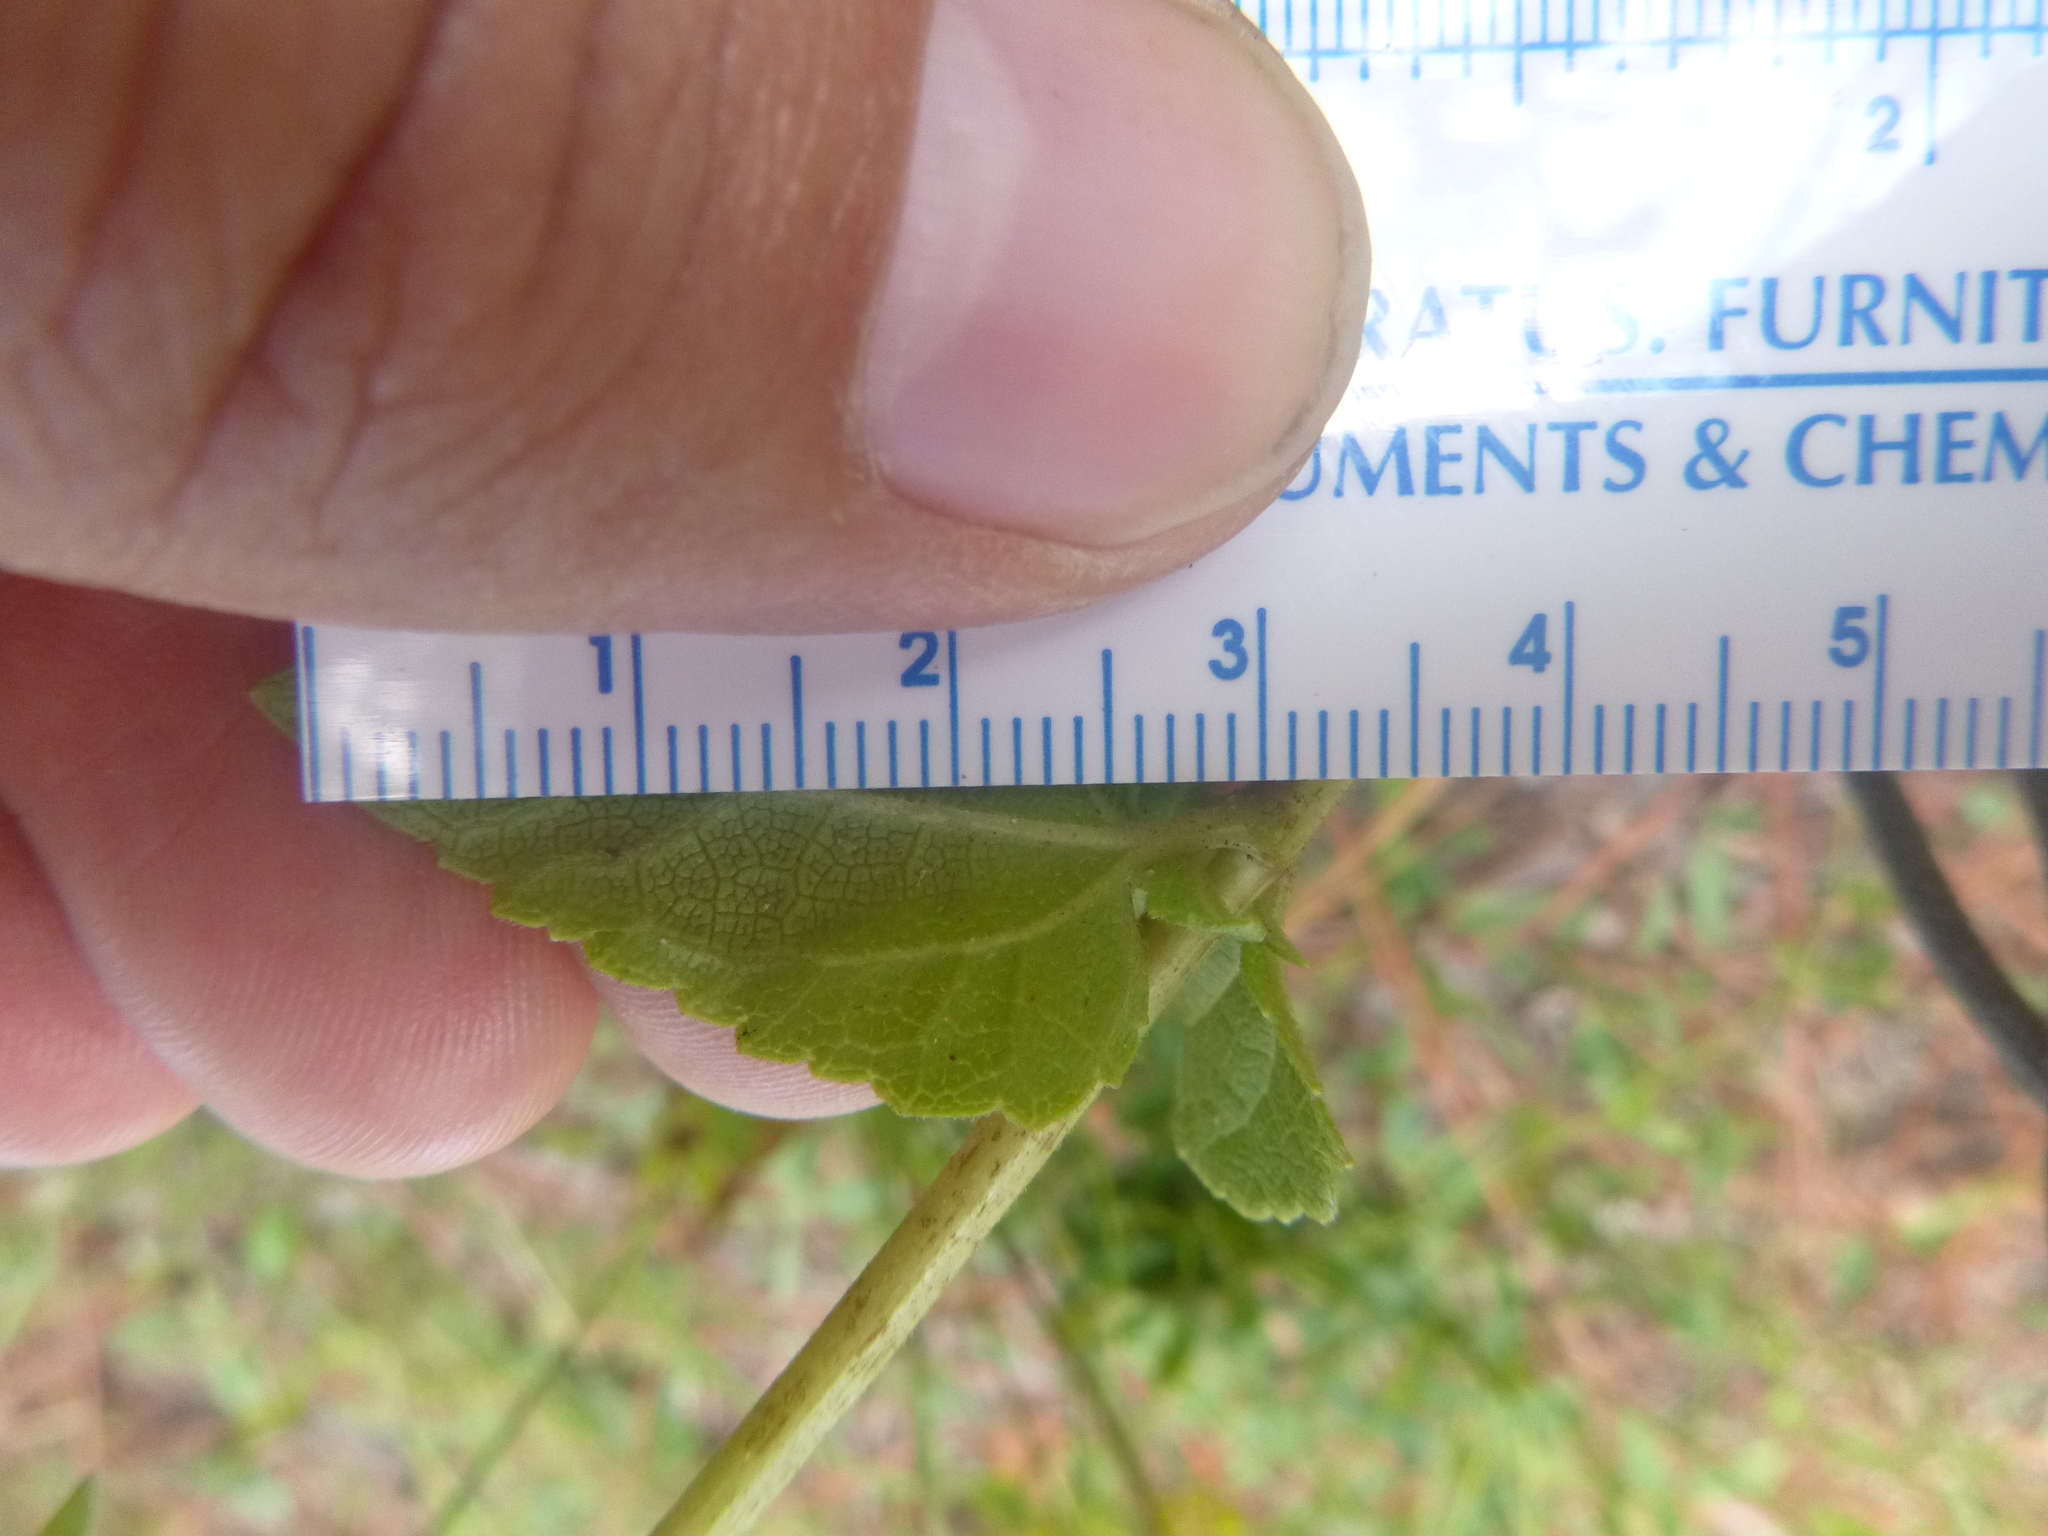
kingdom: Plantae
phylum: Tracheophyta
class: Magnoliopsida
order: Asterales
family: Asteraceae
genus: Ageratina
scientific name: Ageratina aromatica
